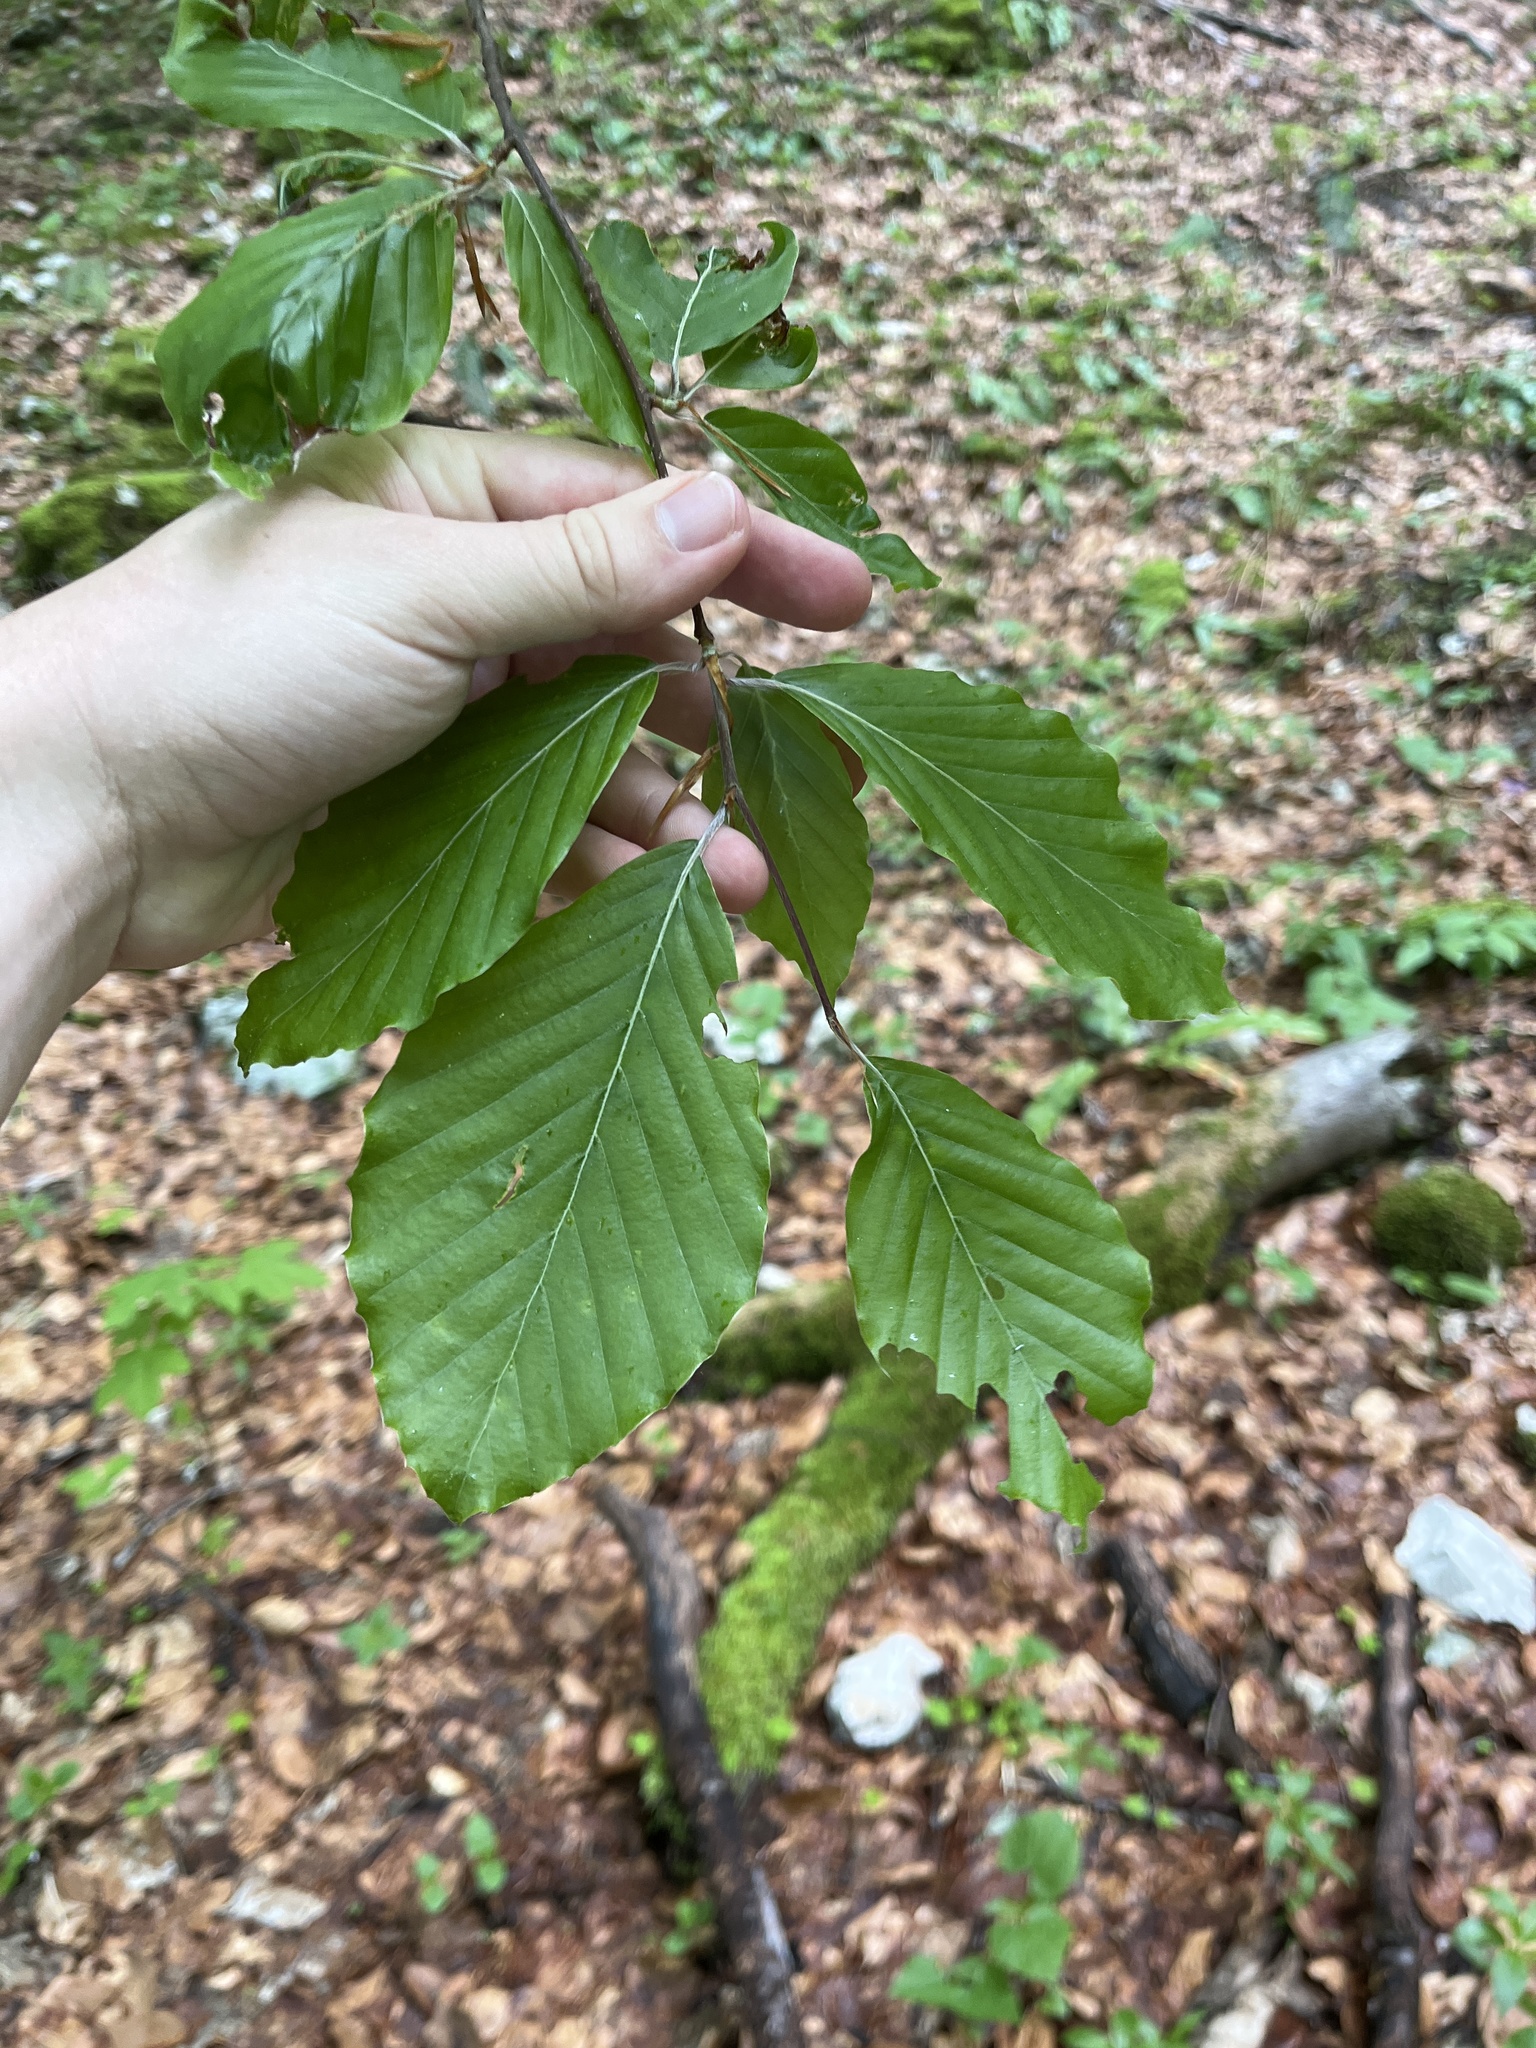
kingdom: Plantae
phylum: Tracheophyta
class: Magnoliopsida
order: Fagales
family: Fagaceae
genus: Fagus
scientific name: Fagus sylvatica
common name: Beech
